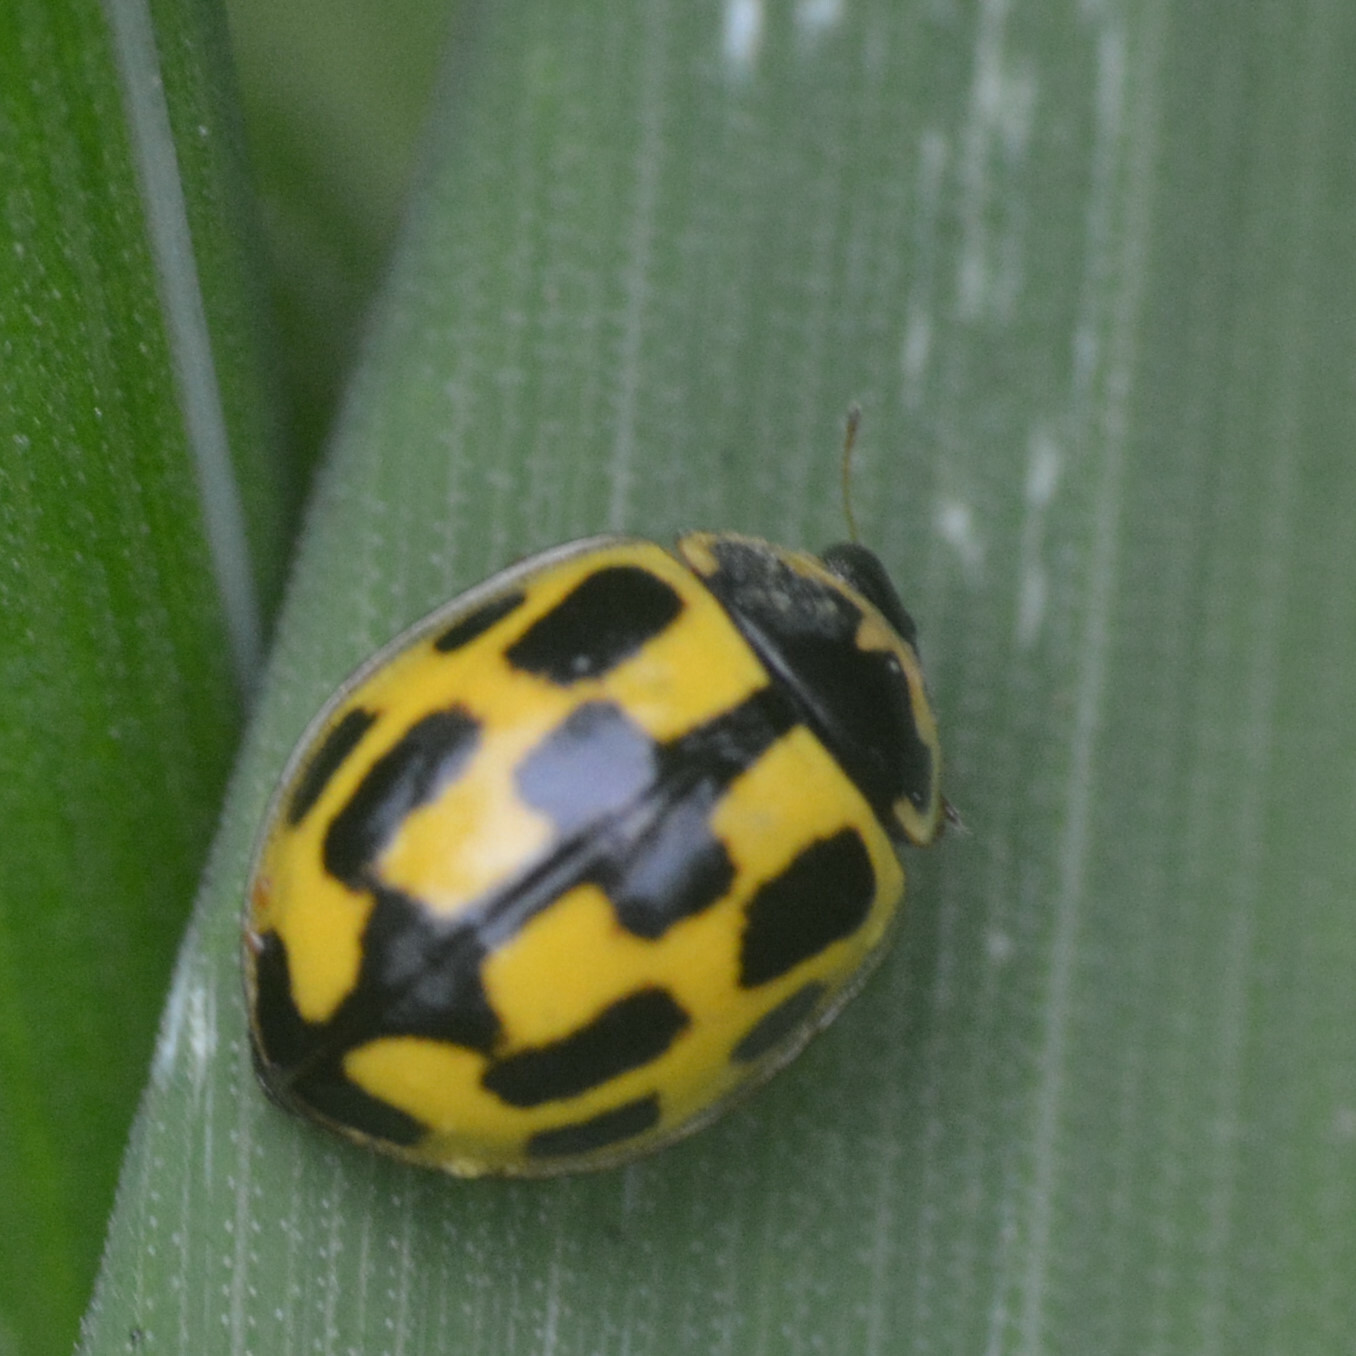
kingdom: Animalia
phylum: Arthropoda
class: Insecta
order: Coleoptera
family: Coccinellidae
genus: Propylaea
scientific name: Propylaea quatuordecimpunctata
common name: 14-spotted ladybird beetle
